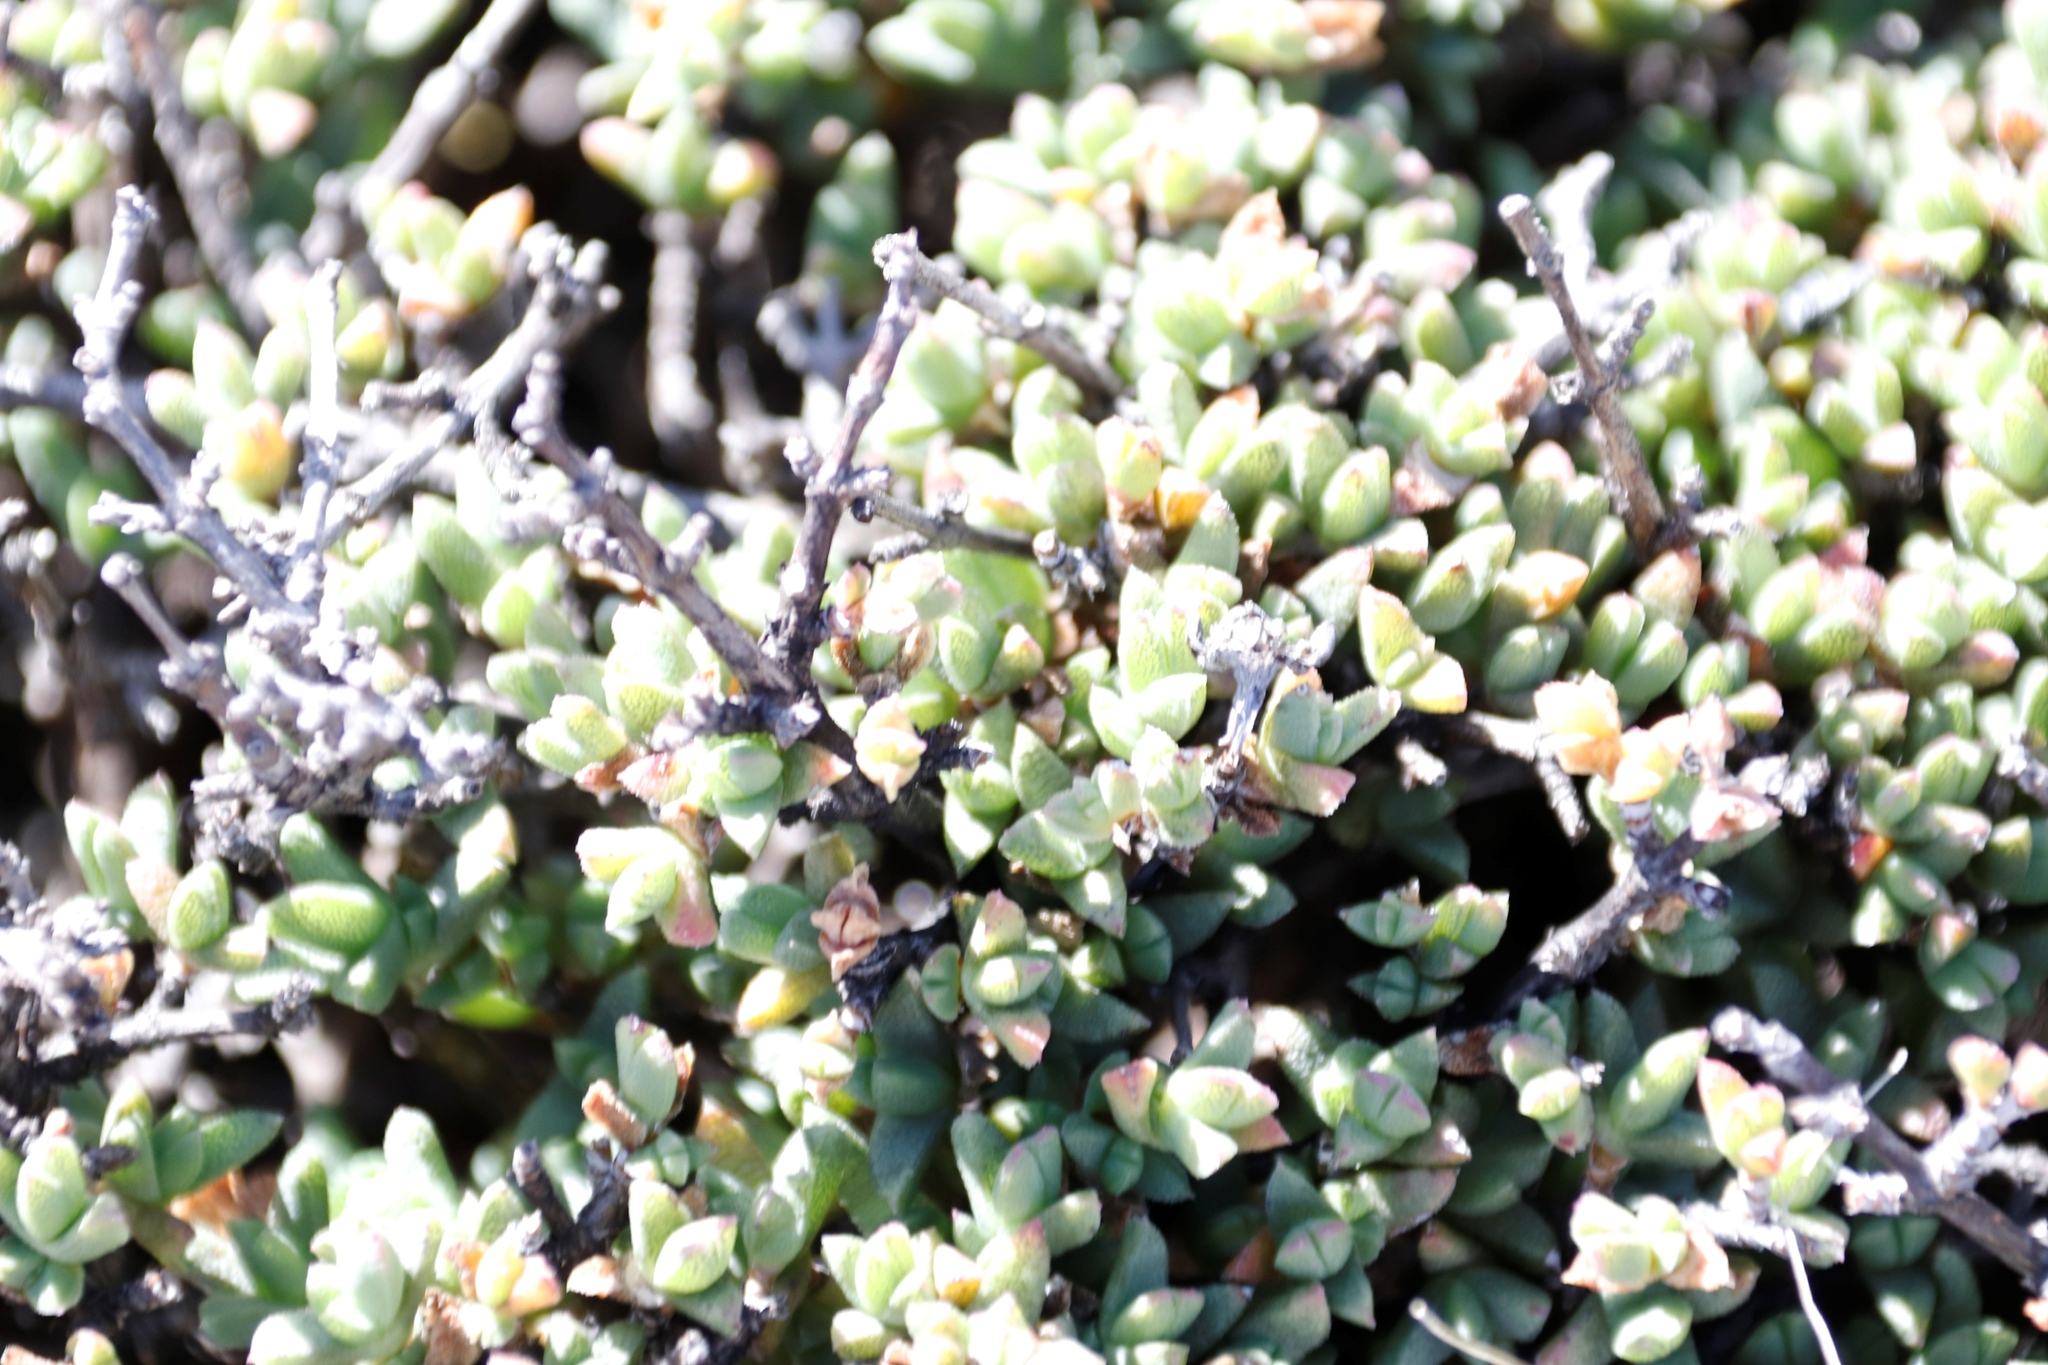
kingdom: Plantae
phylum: Tracheophyta
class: Magnoliopsida
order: Caryophyllales
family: Aizoaceae
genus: Ruschia
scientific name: Ruschia putterillii
